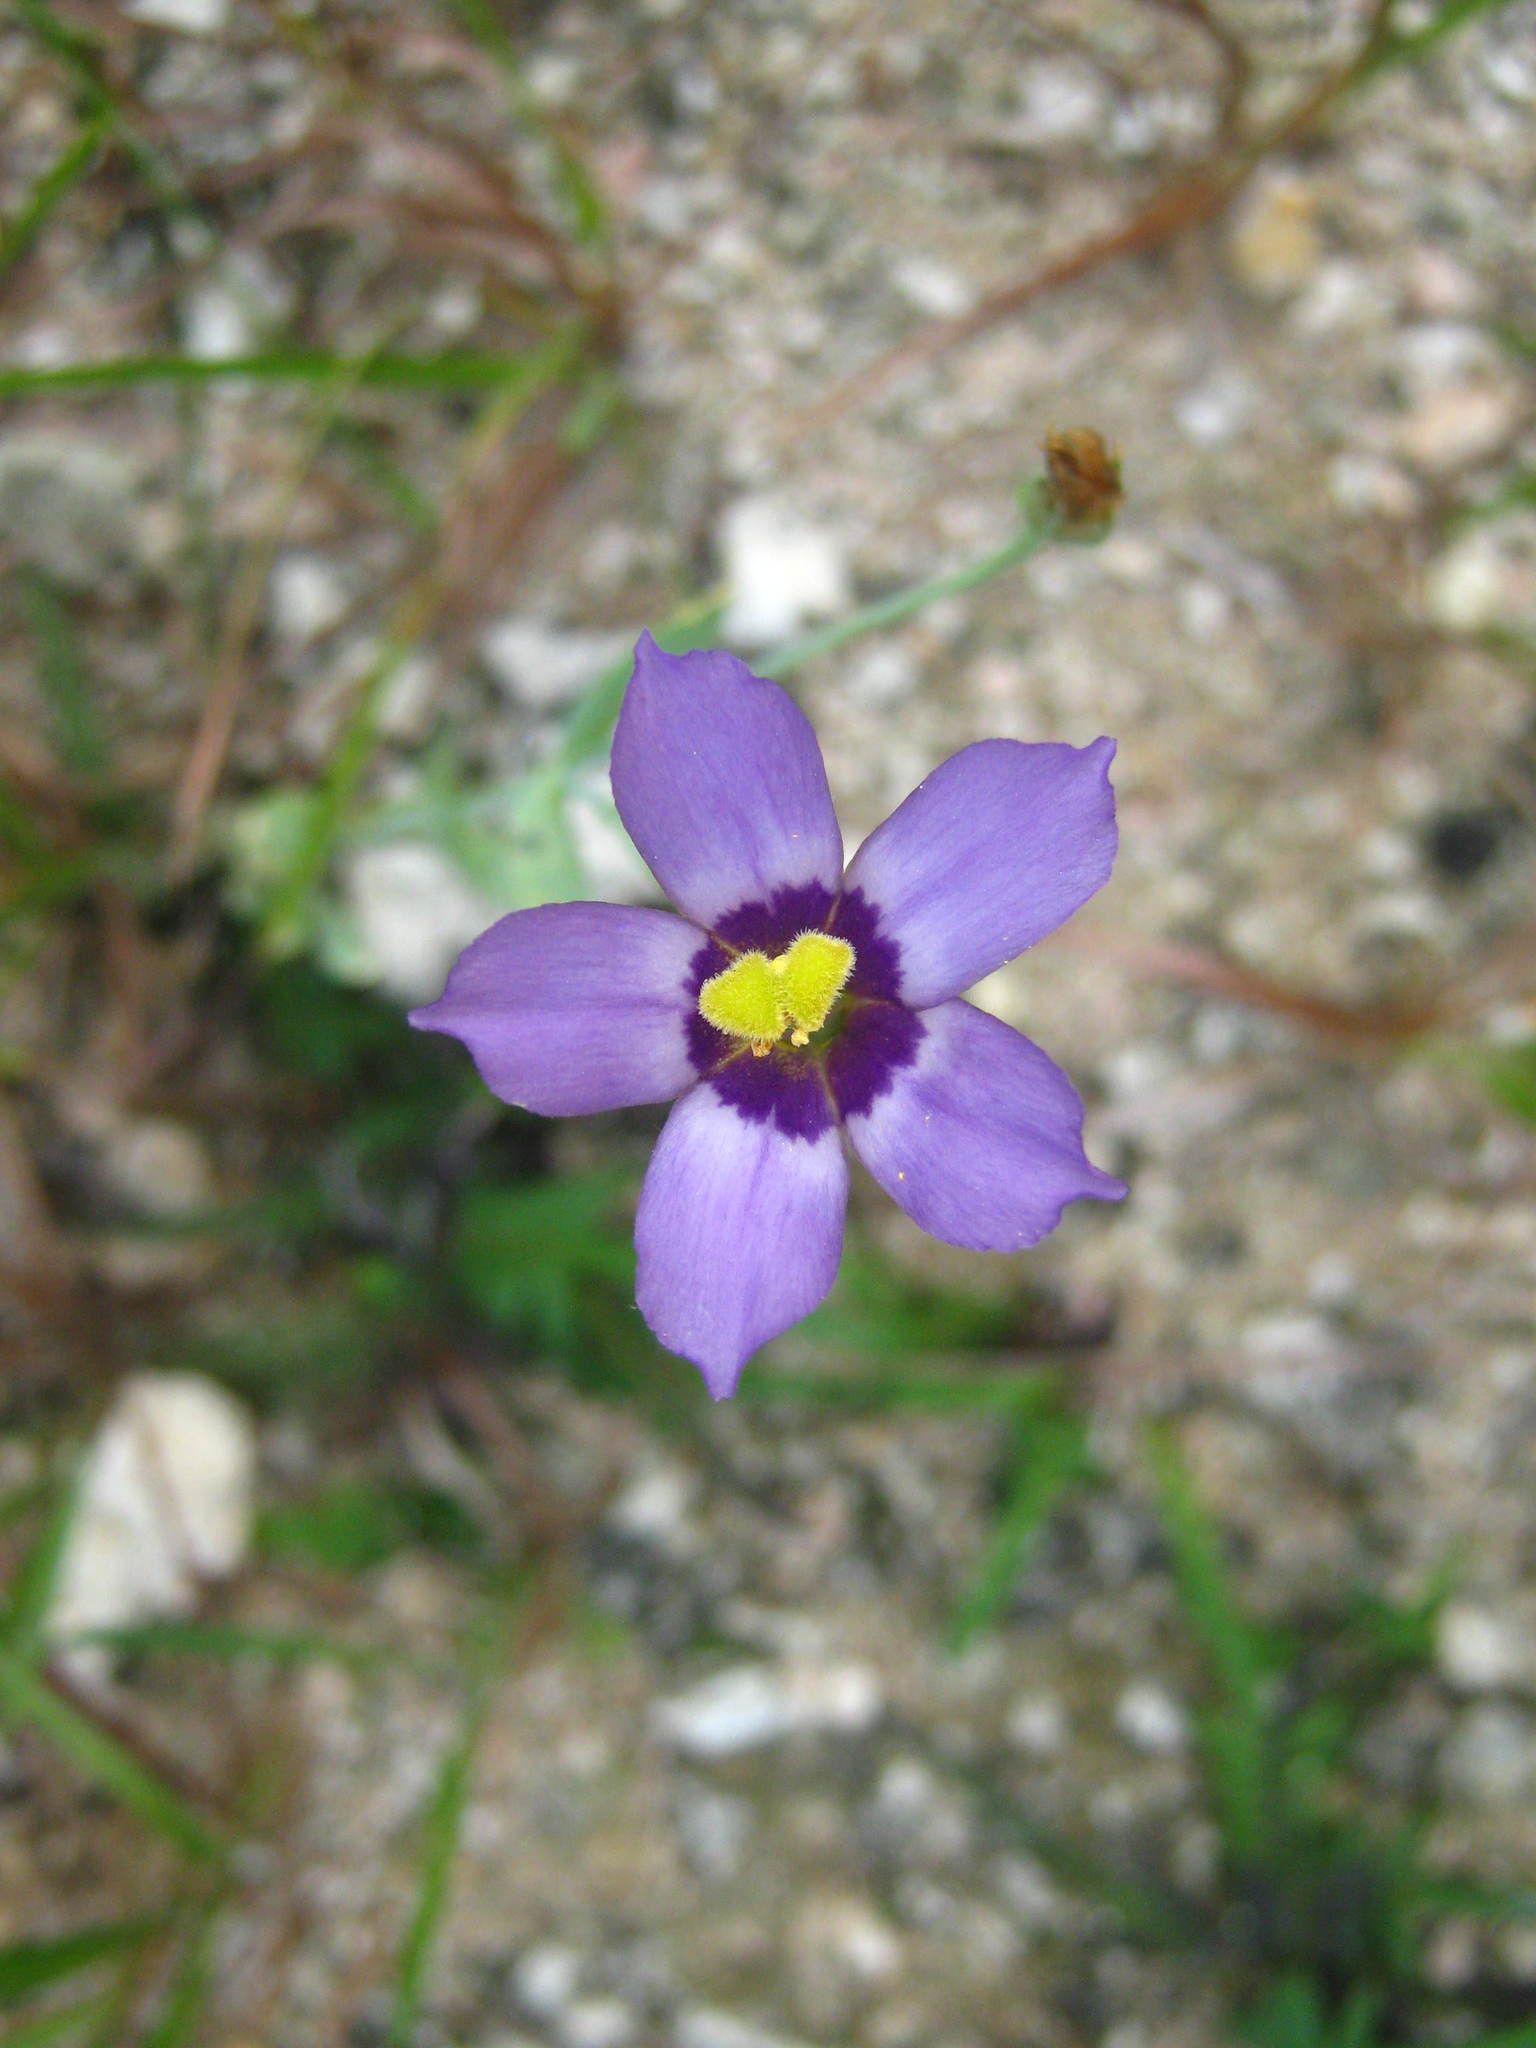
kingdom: Plantae
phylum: Tracheophyta
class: Magnoliopsida
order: Gentianales
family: Gentianaceae
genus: Eustoma
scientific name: Eustoma exaltatum
